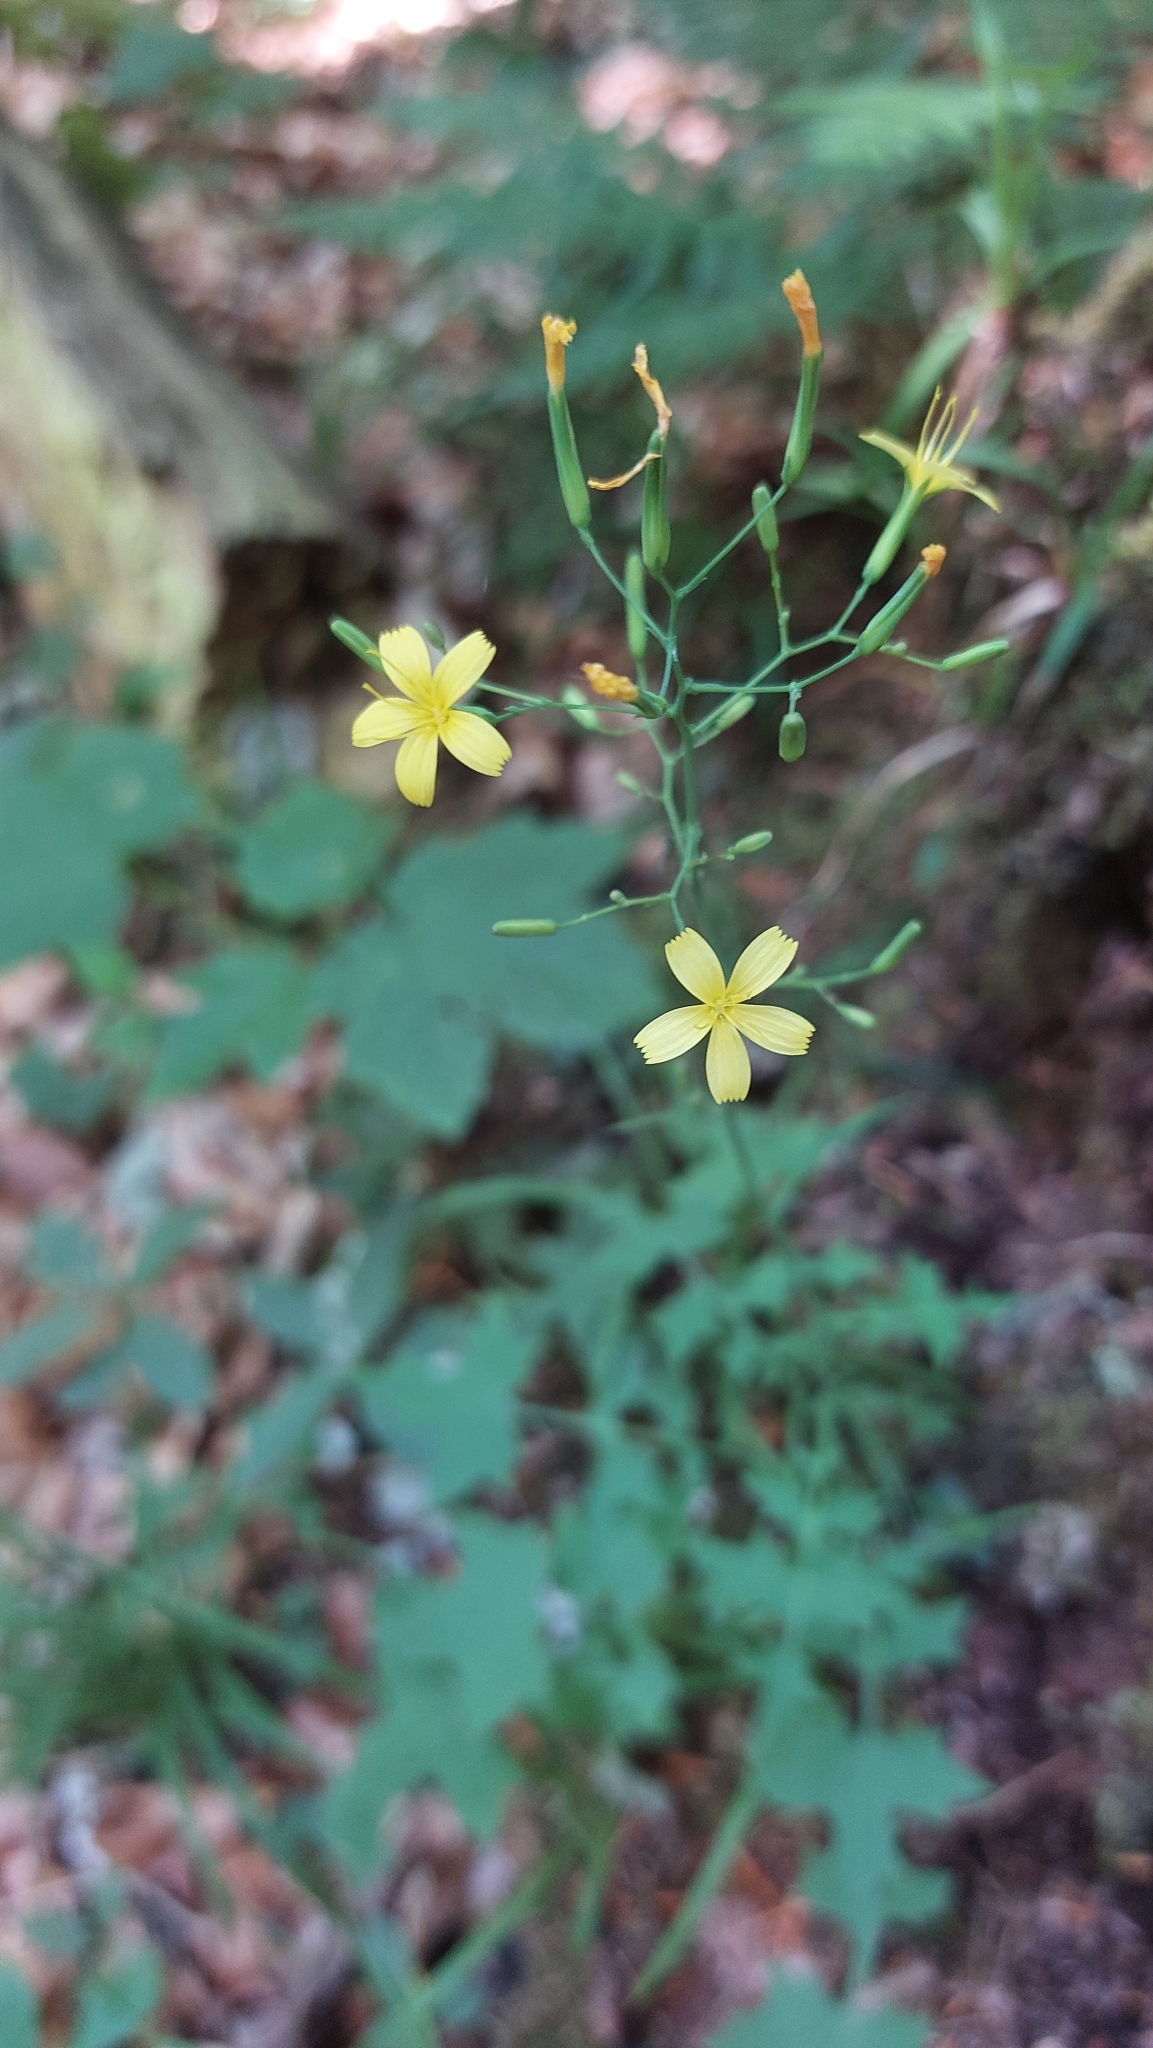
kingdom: Plantae
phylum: Tracheophyta
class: Magnoliopsida
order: Asterales
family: Asteraceae
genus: Mycelis
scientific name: Mycelis muralis
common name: Wall lettuce
